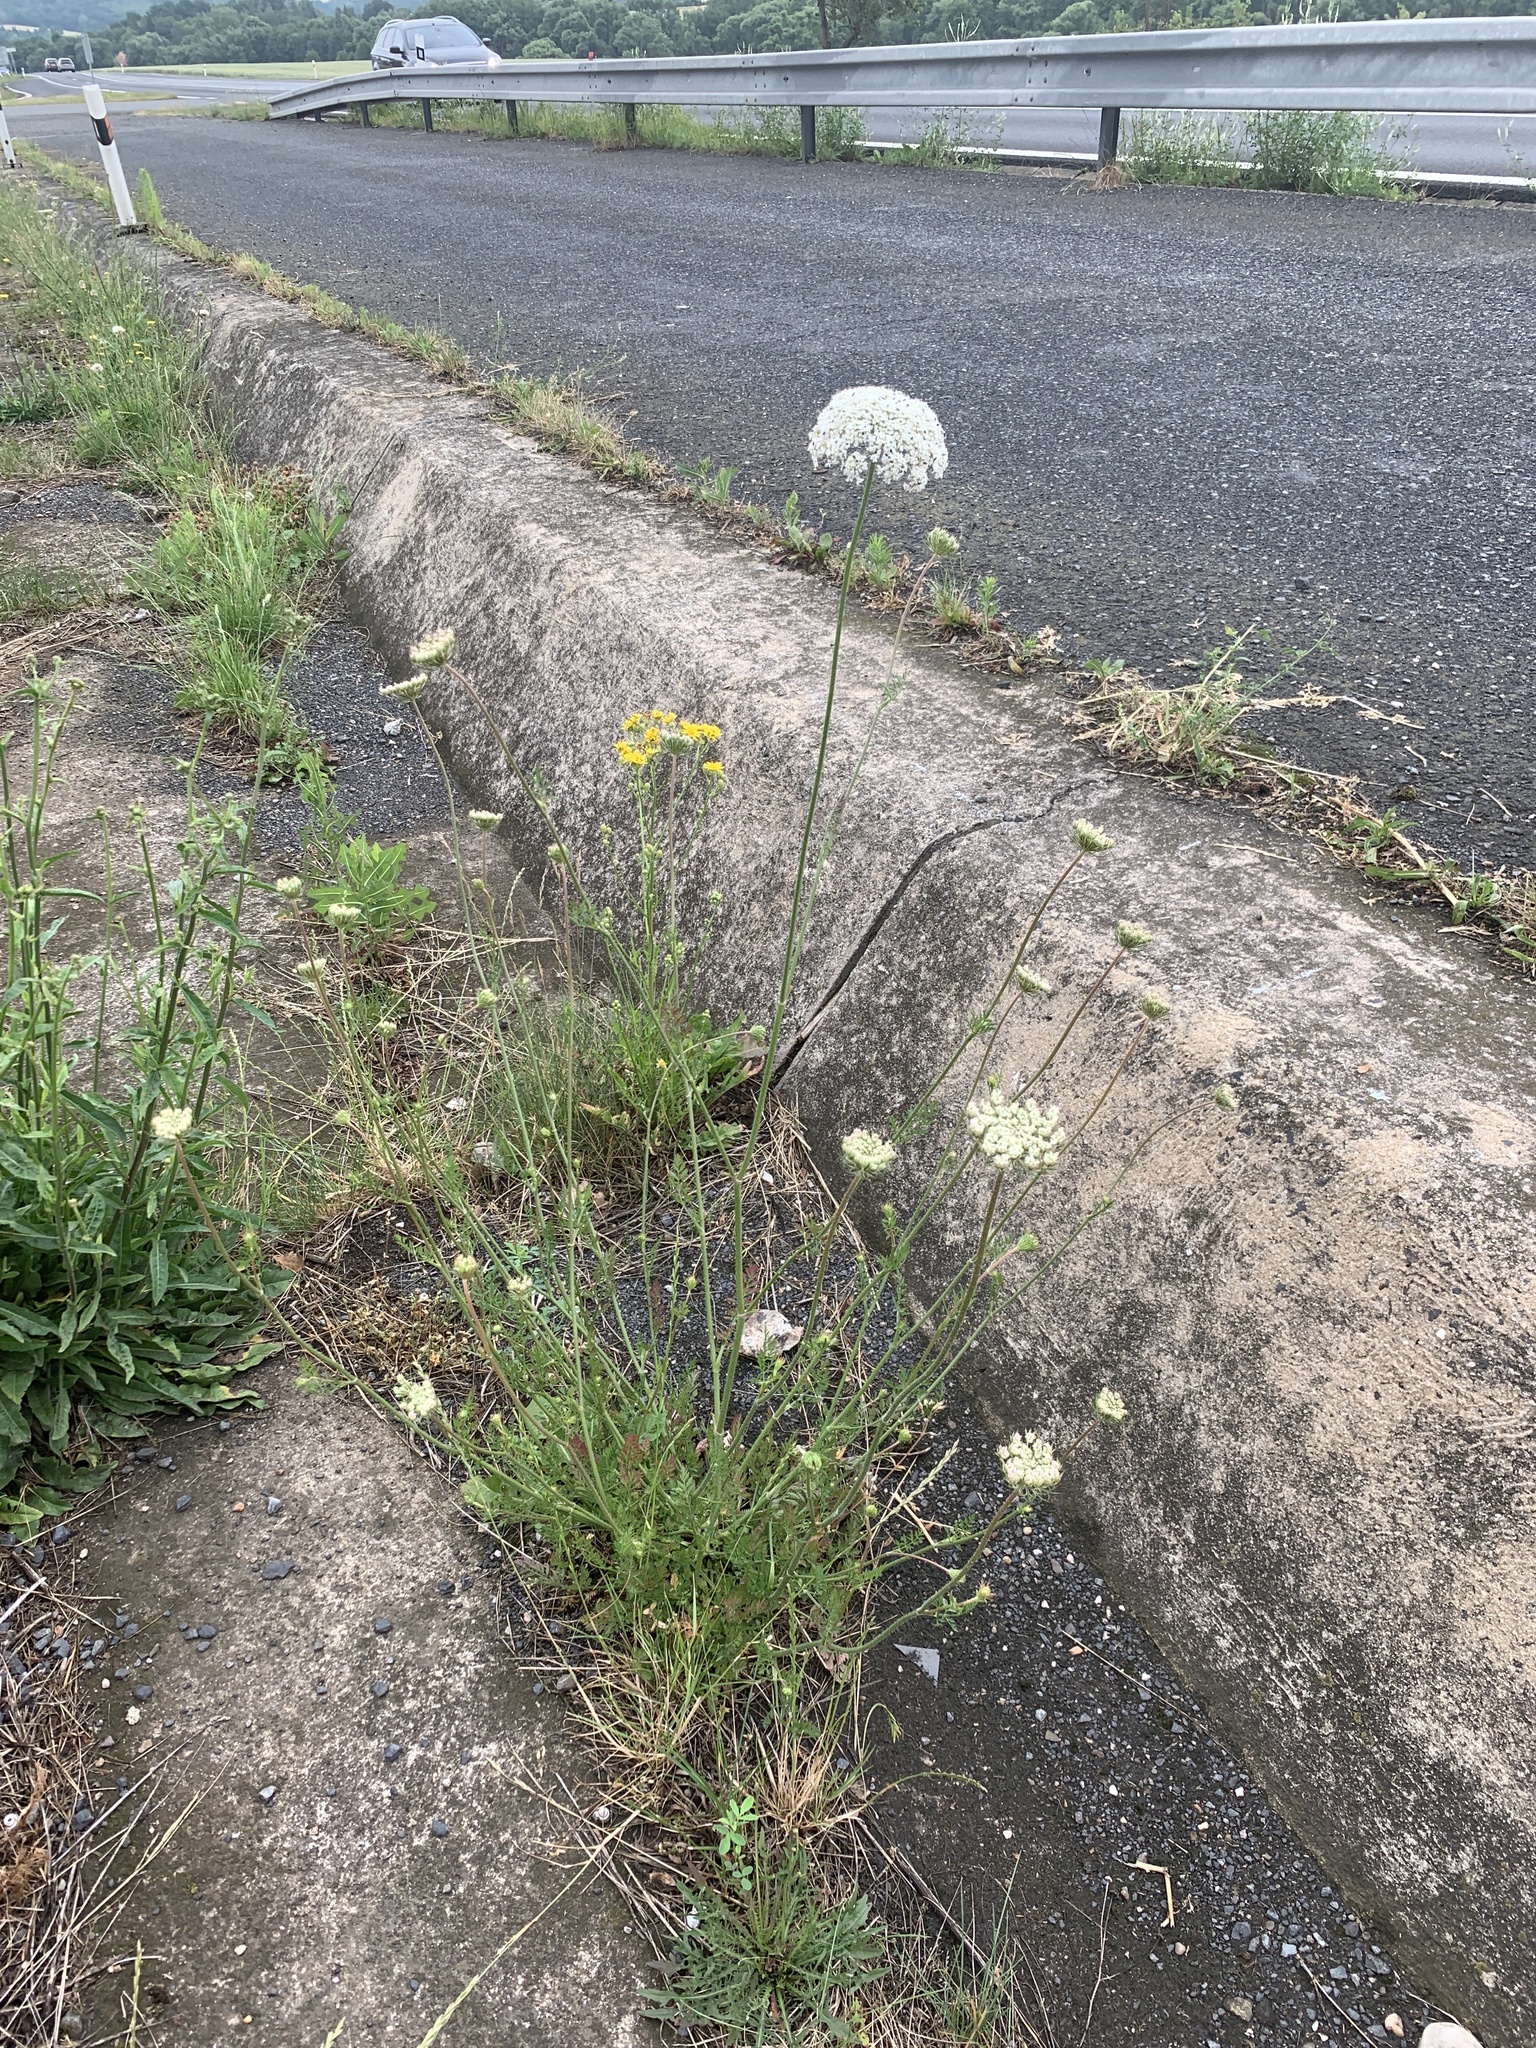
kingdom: Plantae
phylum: Tracheophyta
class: Magnoliopsida
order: Apiales
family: Apiaceae
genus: Daucus
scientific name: Daucus carota
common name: Wild carrot
